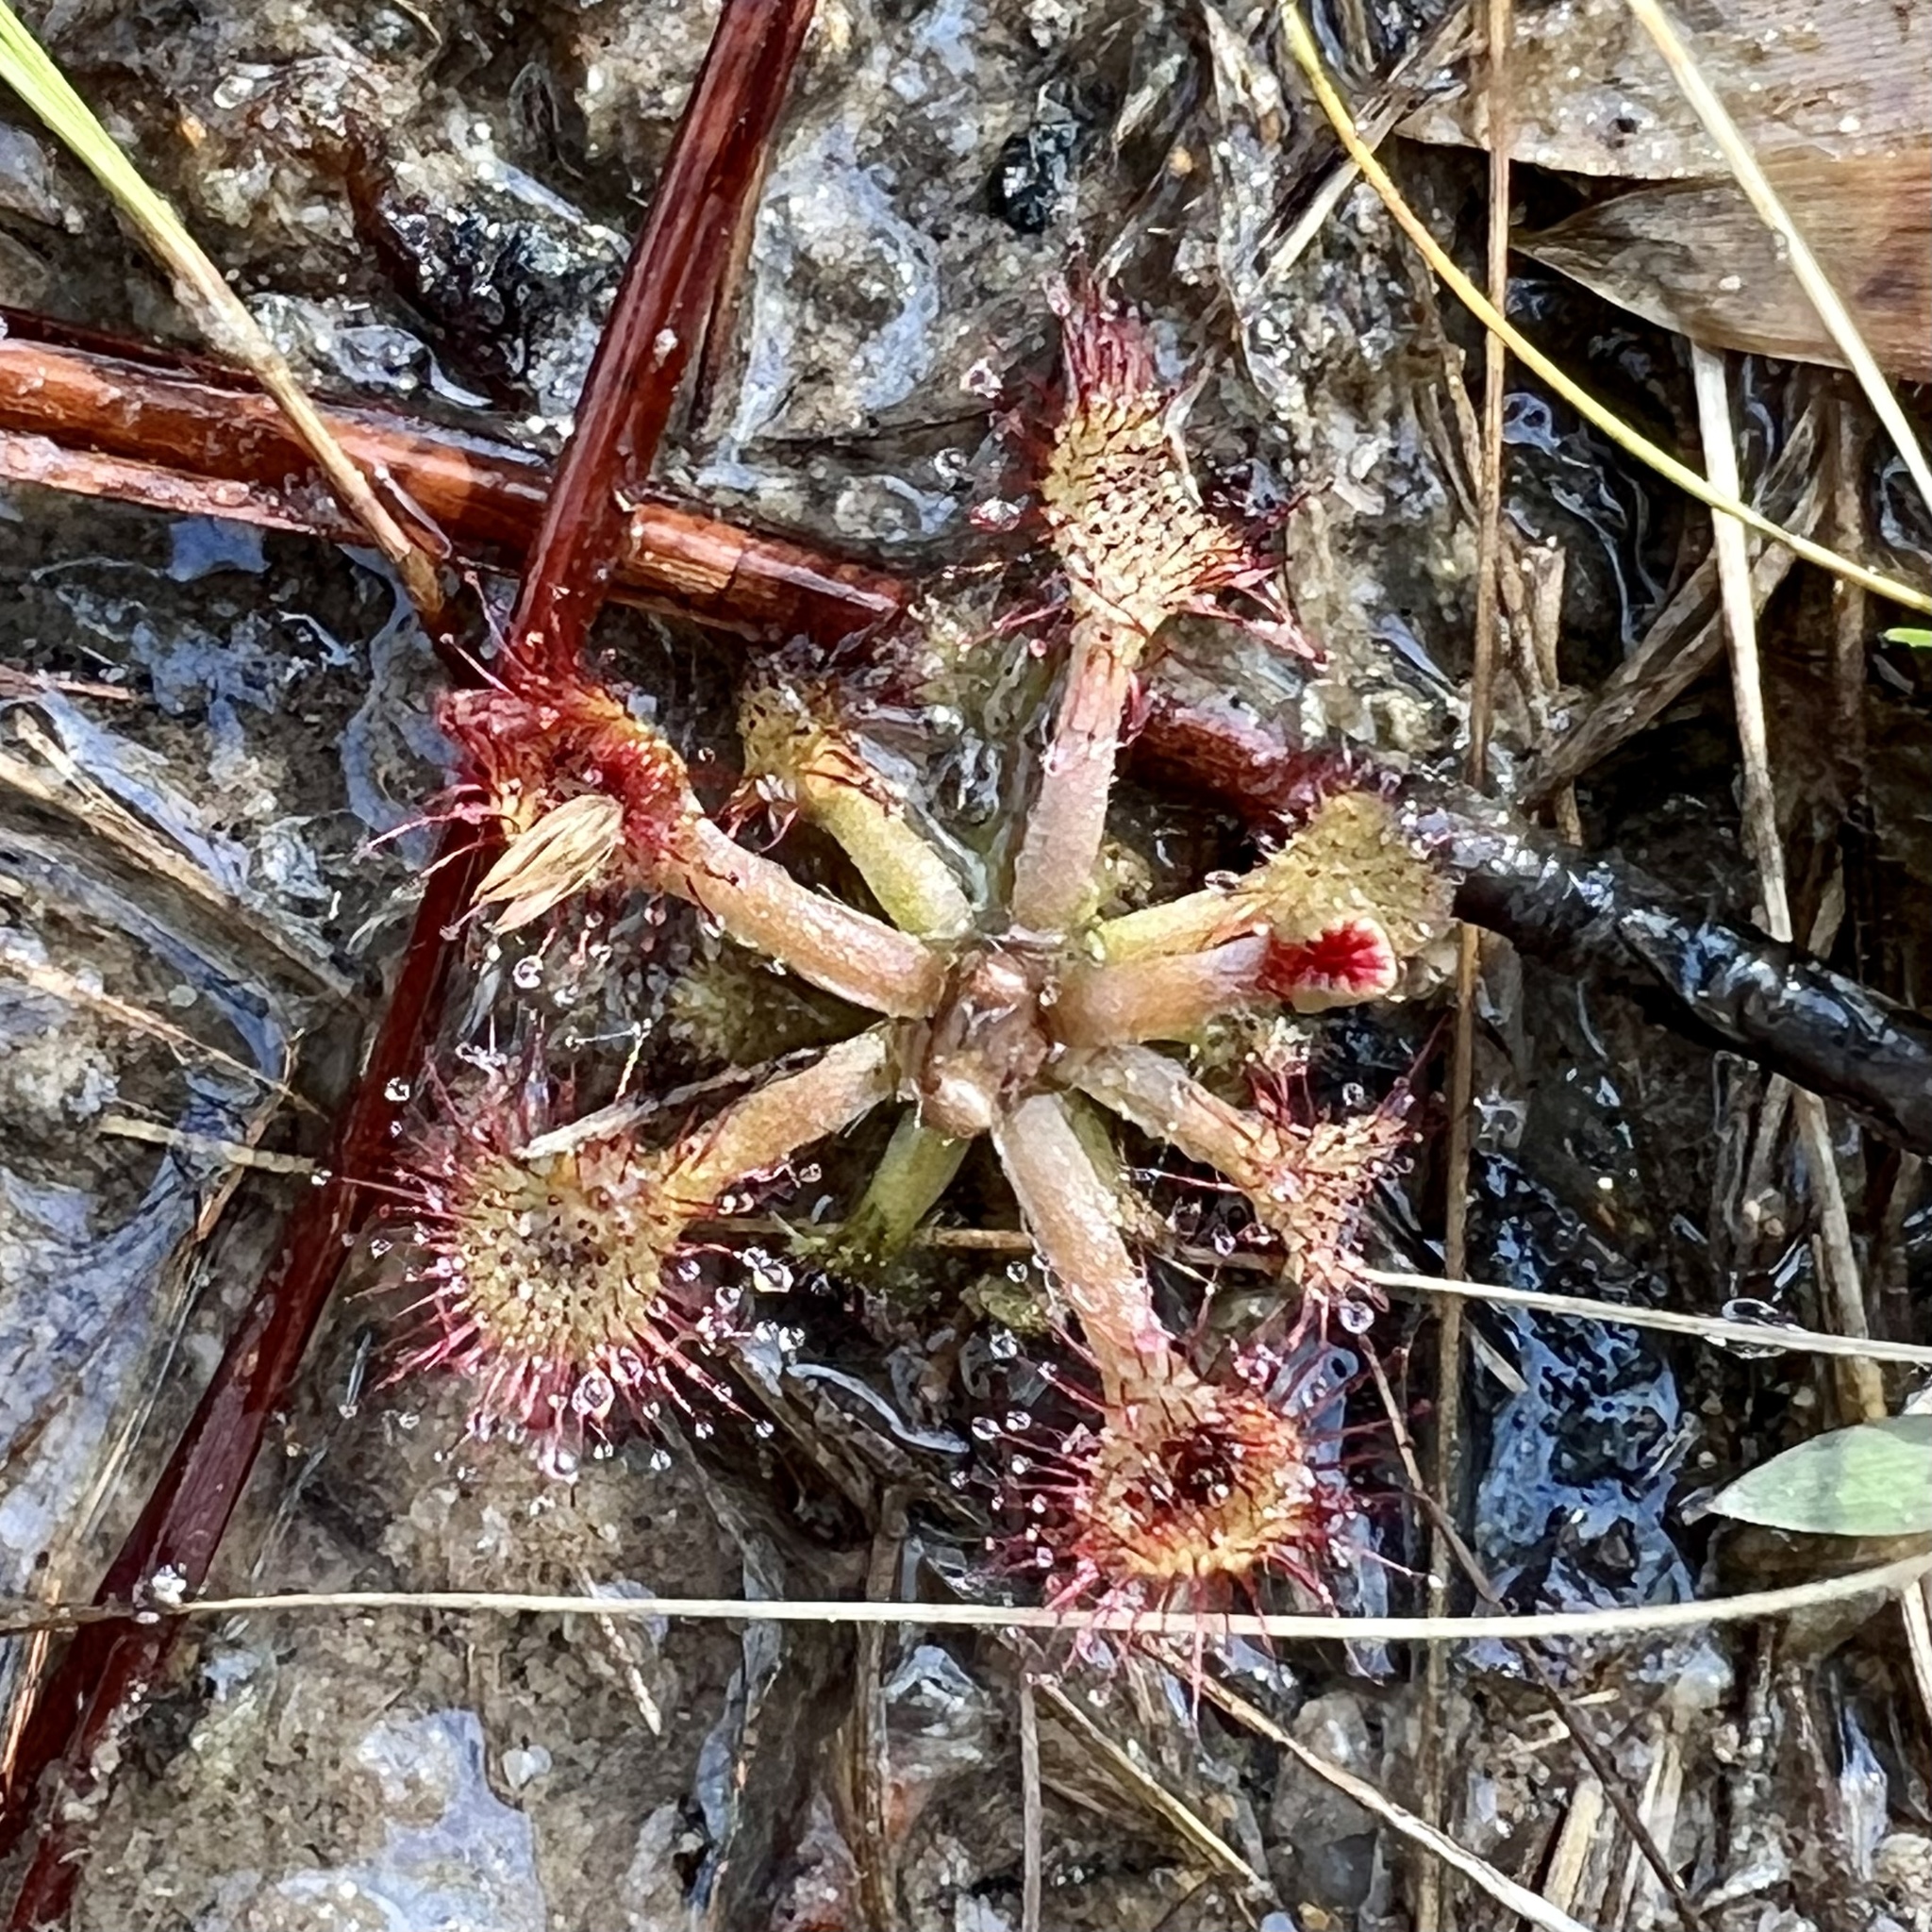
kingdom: Plantae
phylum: Tracheophyta
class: Magnoliopsida
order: Caryophyllales
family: Droseraceae
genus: Drosera
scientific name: Drosera capillaris
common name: Pink sundew
